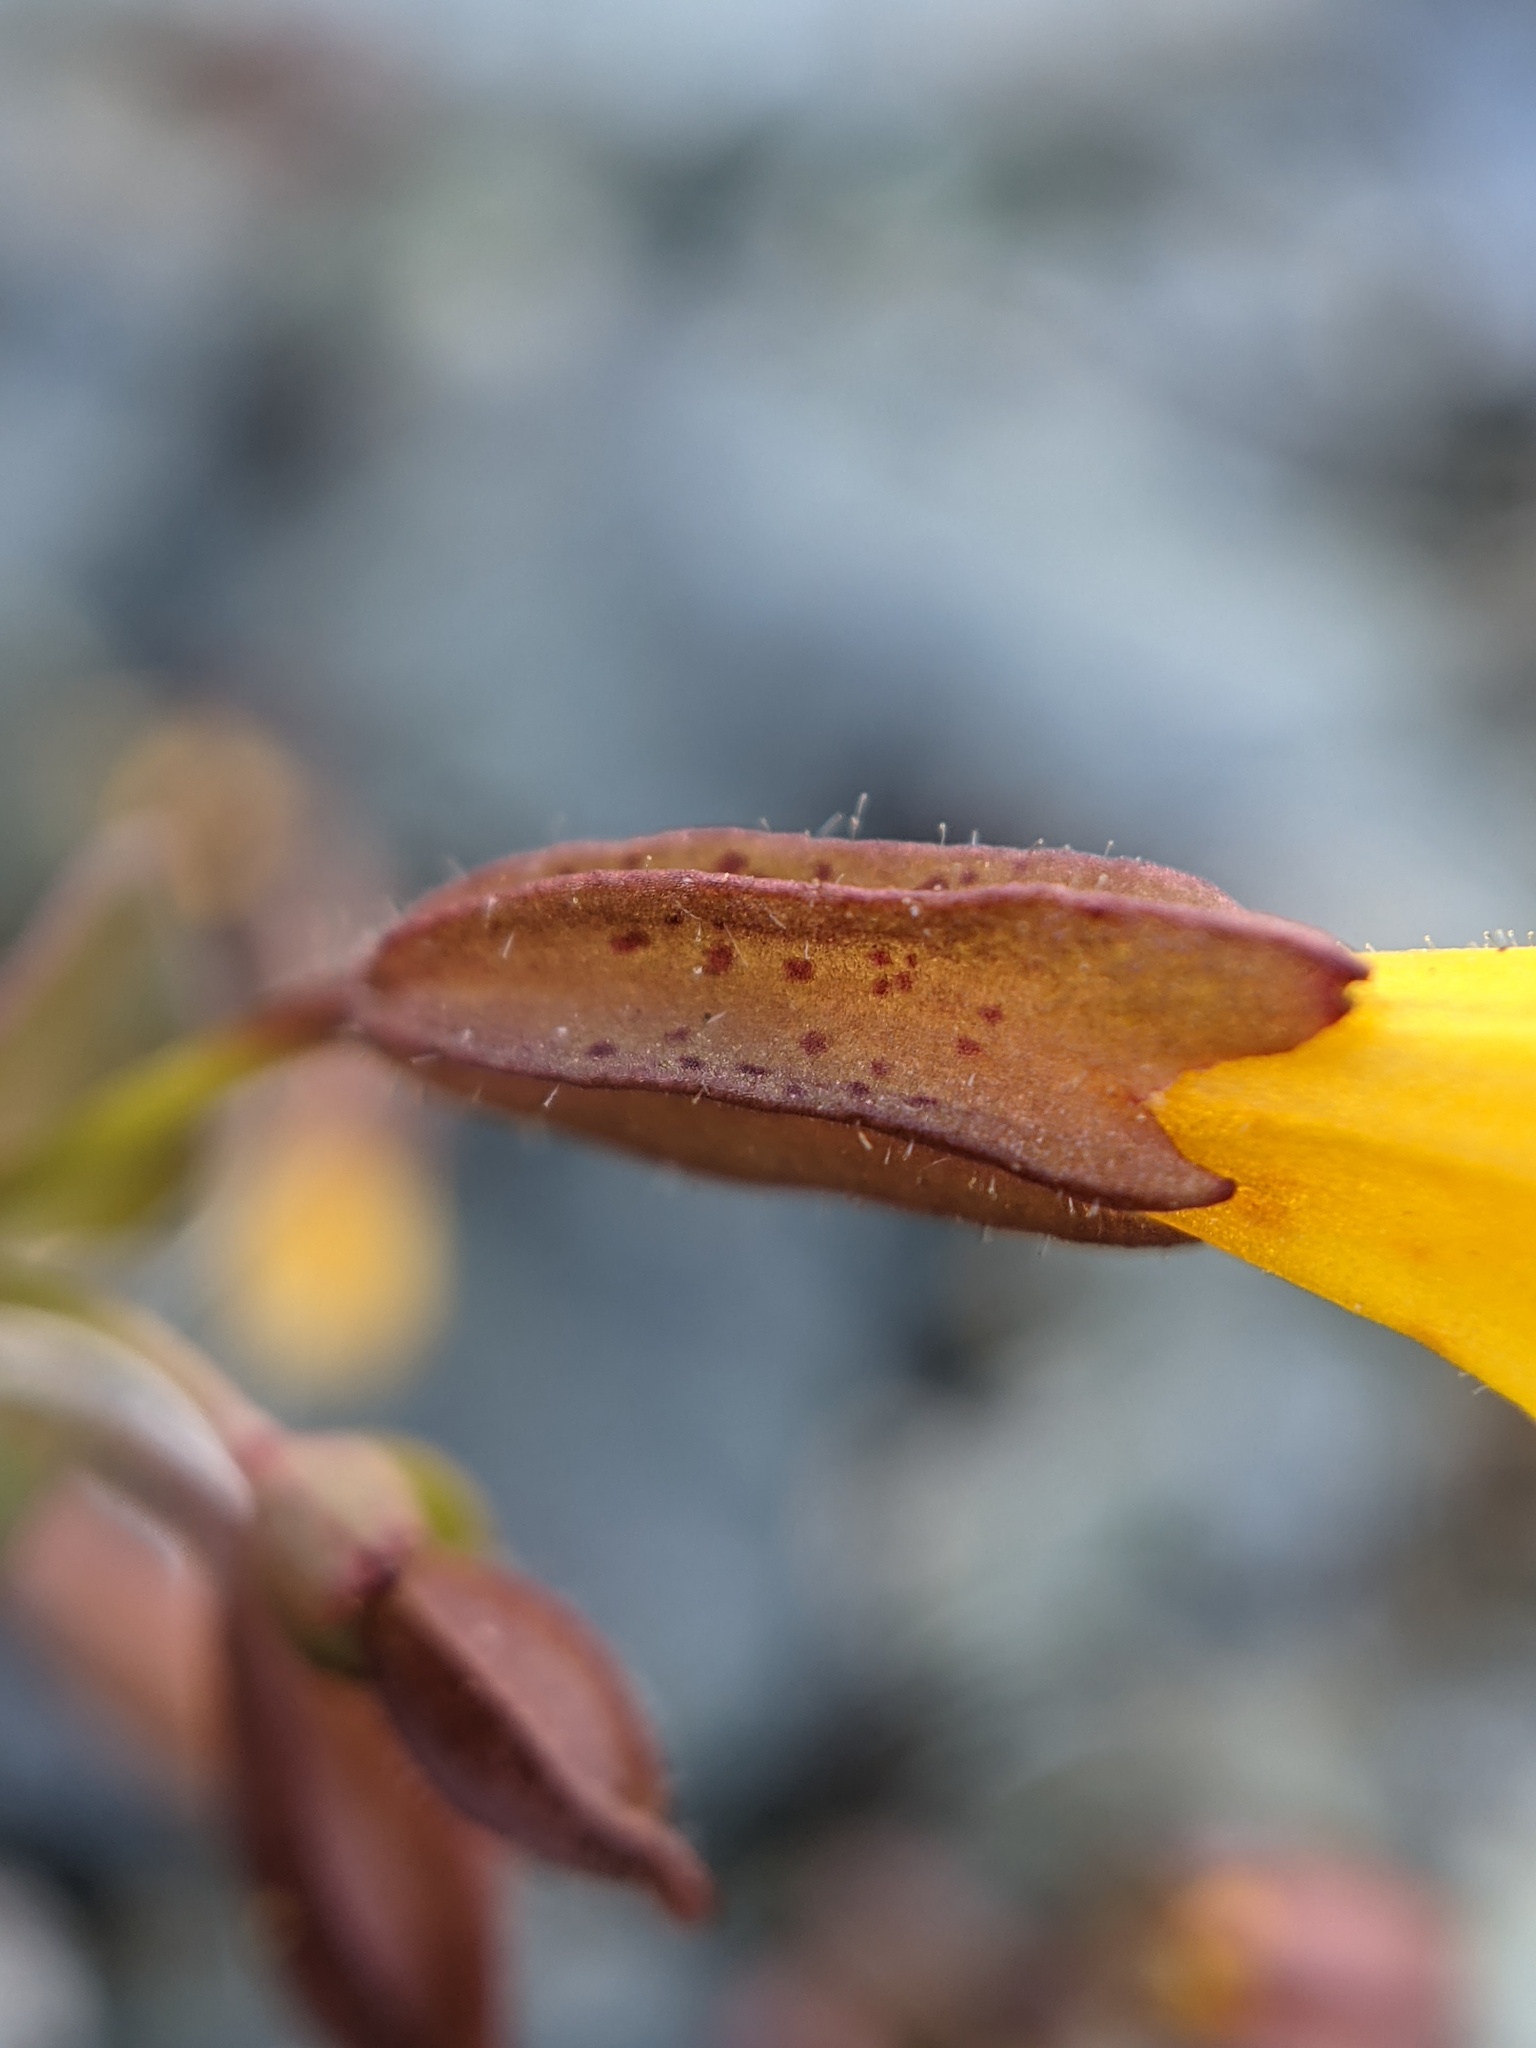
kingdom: Plantae
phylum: Tracheophyta
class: Magnoliopsida
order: Lamiales
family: Phrymaceae
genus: Erythranthe
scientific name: Erythranthe serpentinicola
